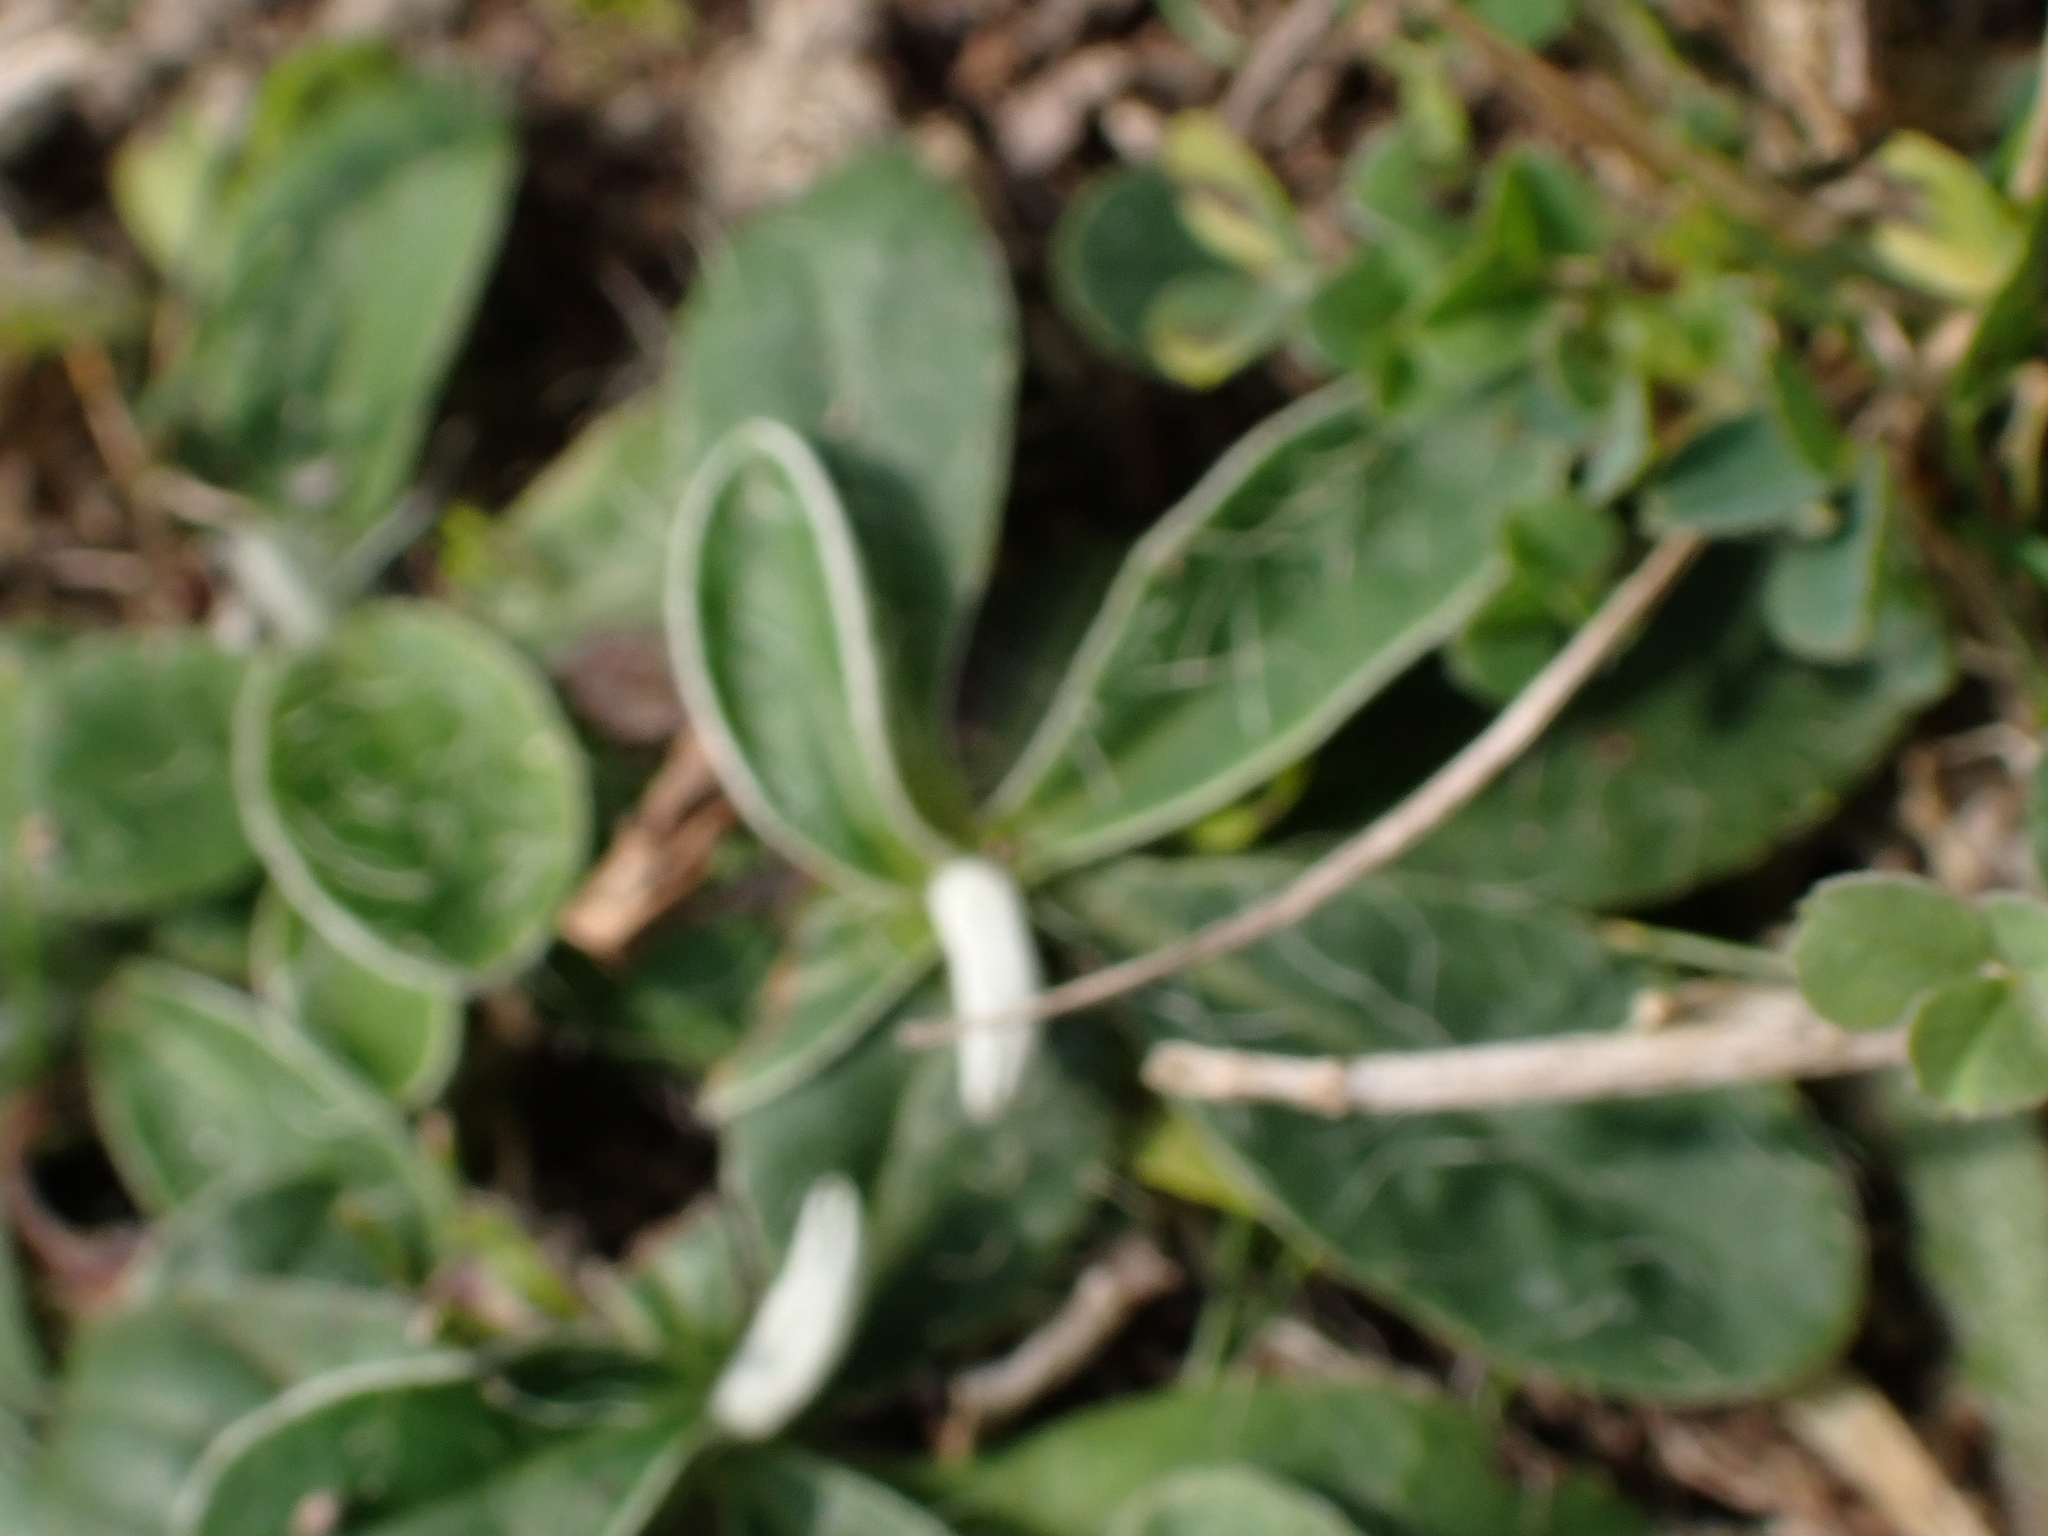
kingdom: Plantae
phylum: Tracheophyta
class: Magnoliopsida
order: Asterales
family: Asteraceae
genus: Pilosella
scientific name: Pilosella officinarum
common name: Mouse-ear hawkweed
